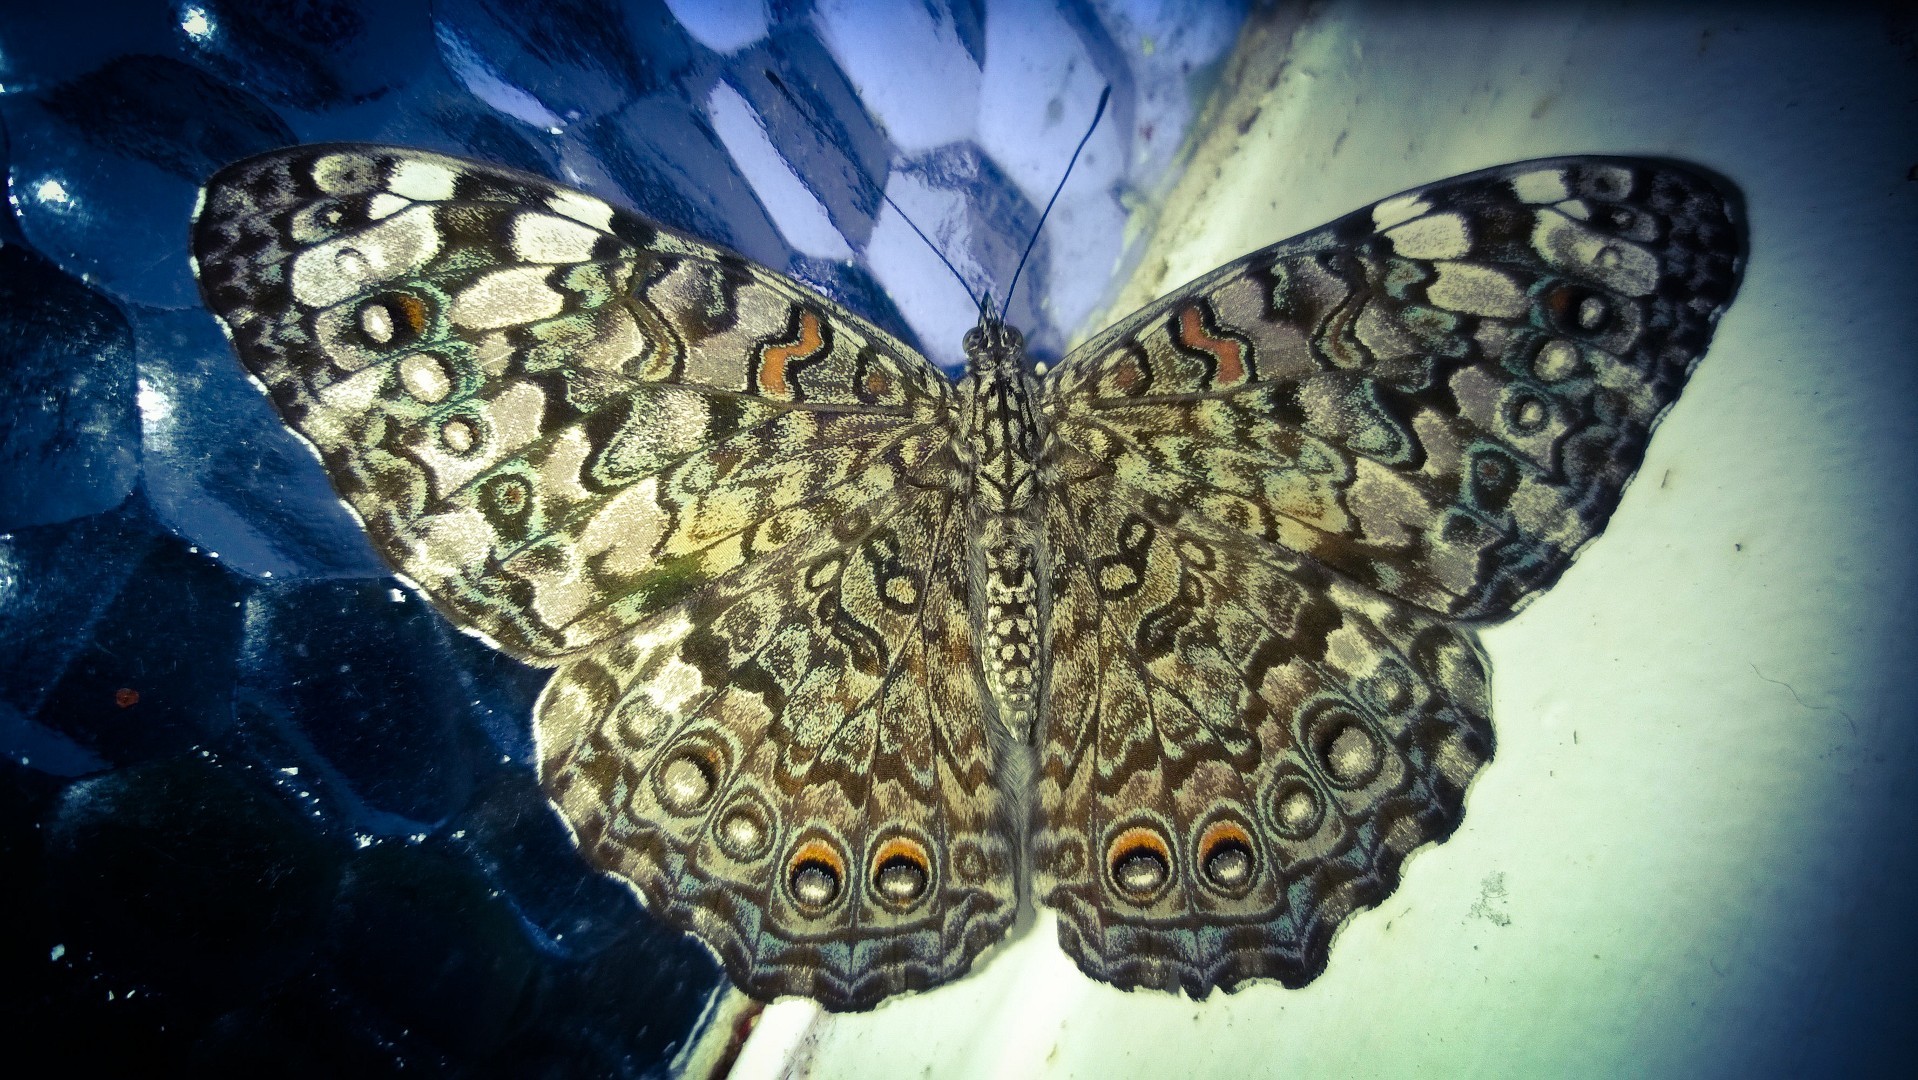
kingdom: Animalia
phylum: Arthropoda
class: Insecta
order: Lepidoptera
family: Nymphalidae
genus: Hamadryas
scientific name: Hamadryas februa
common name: Gray cracker
